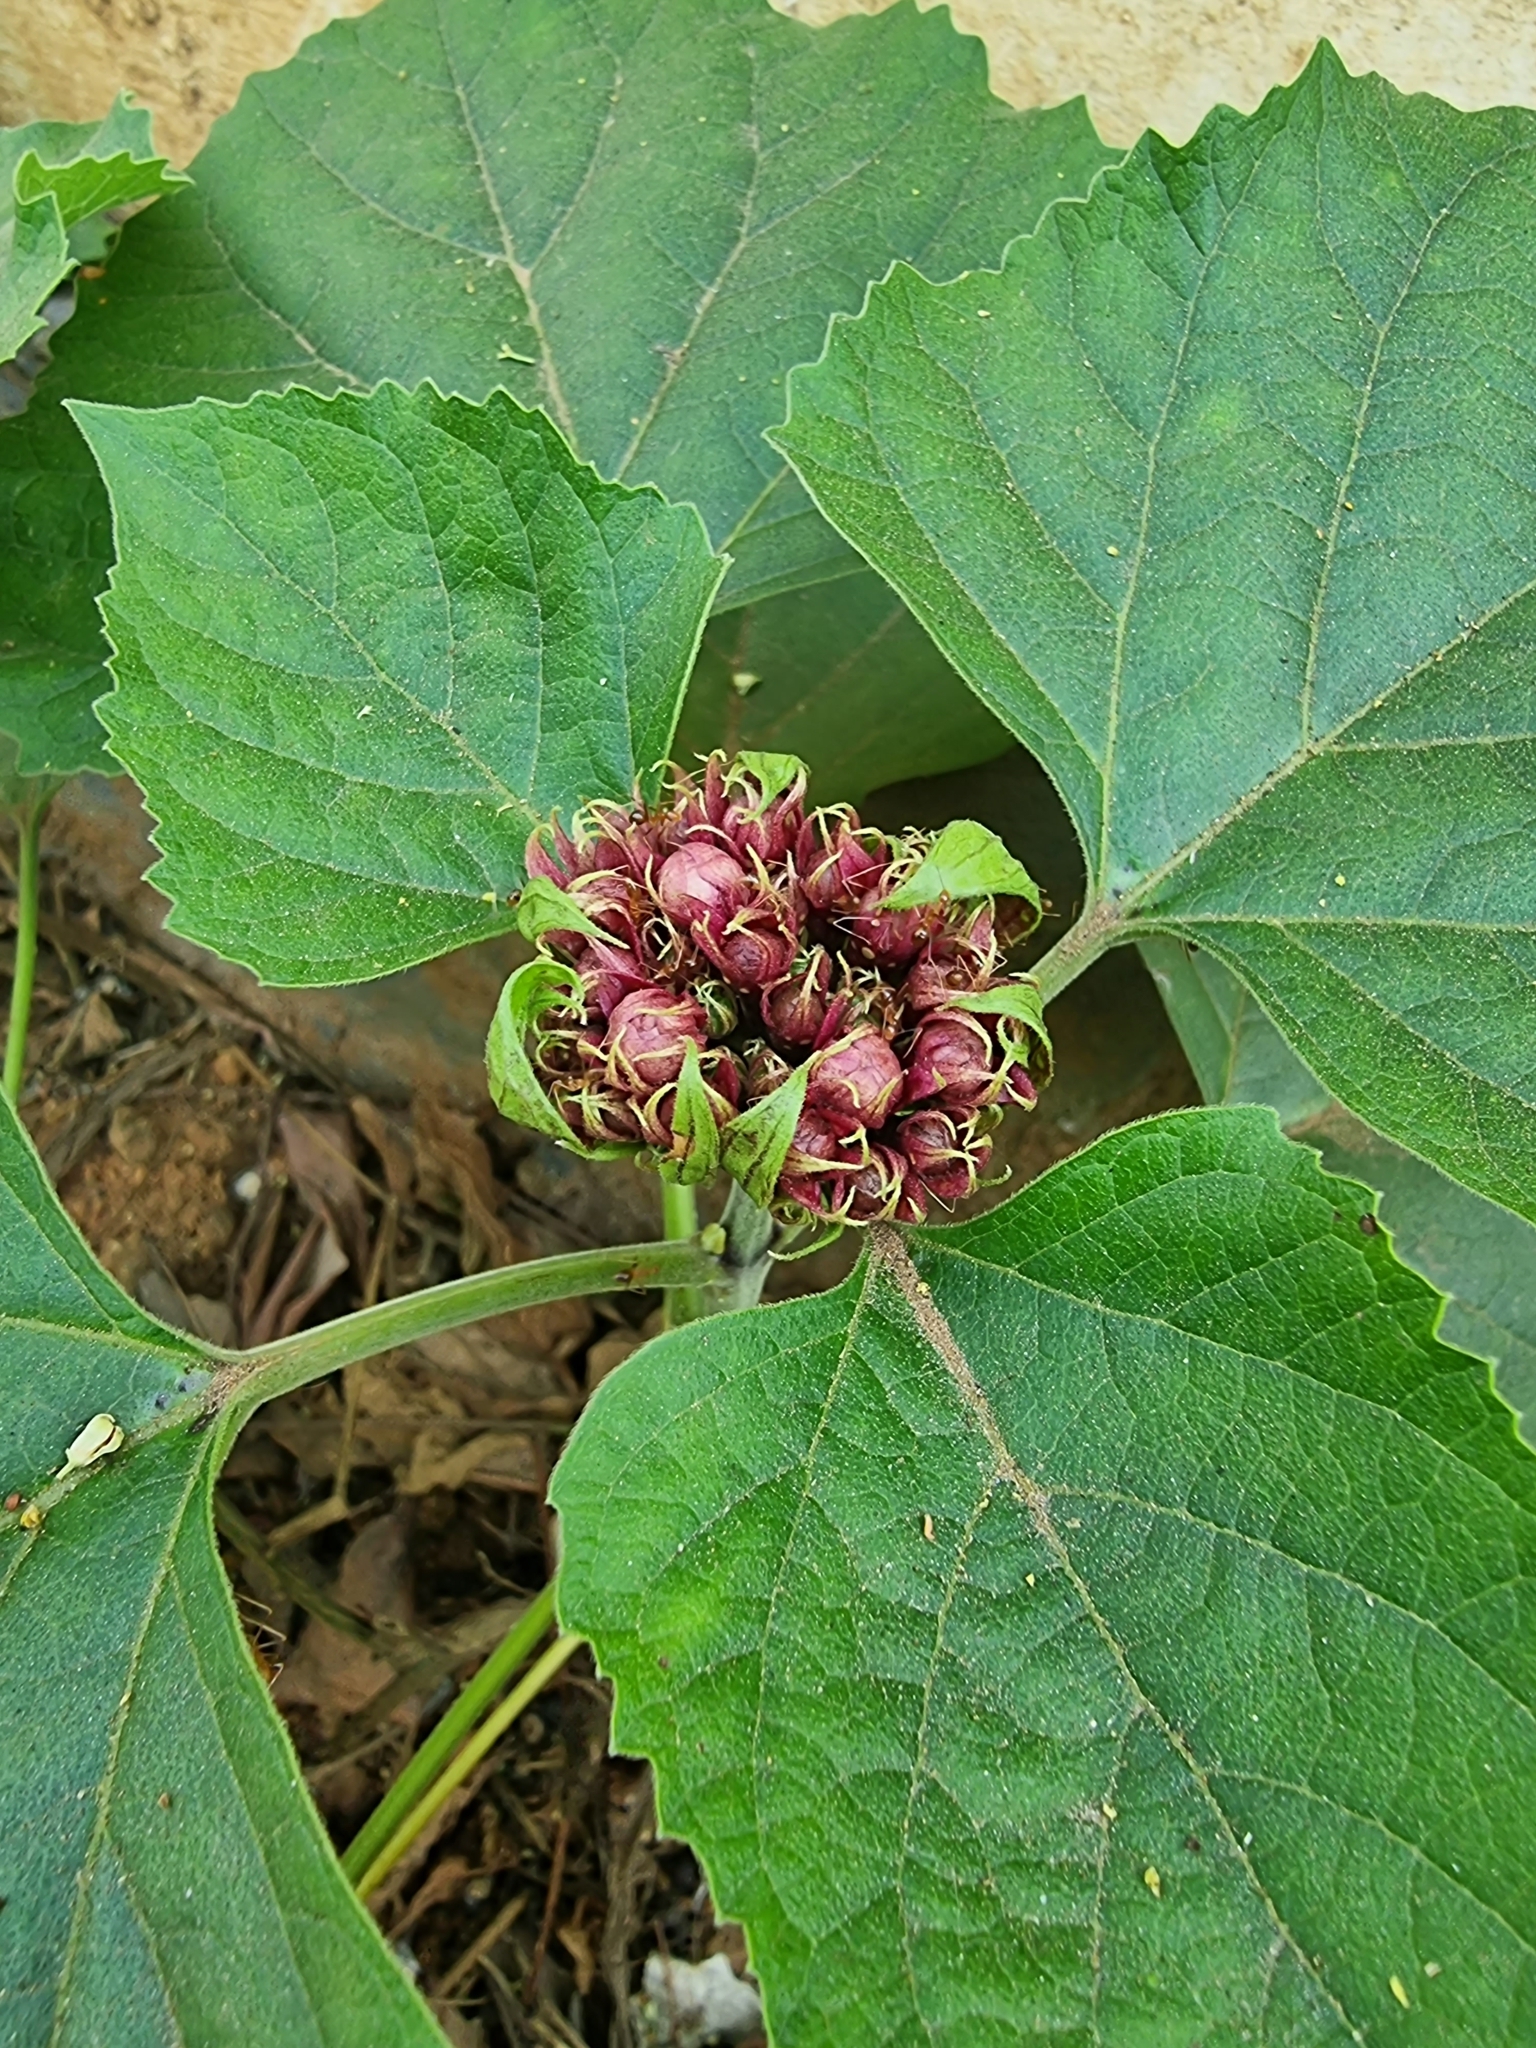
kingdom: Plantae
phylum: Tracheophyta
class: Magnoliopsida
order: Lamiales
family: Lamiaceae
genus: Clerodendrum
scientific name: Clerodendrum chinense
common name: Stickbush
